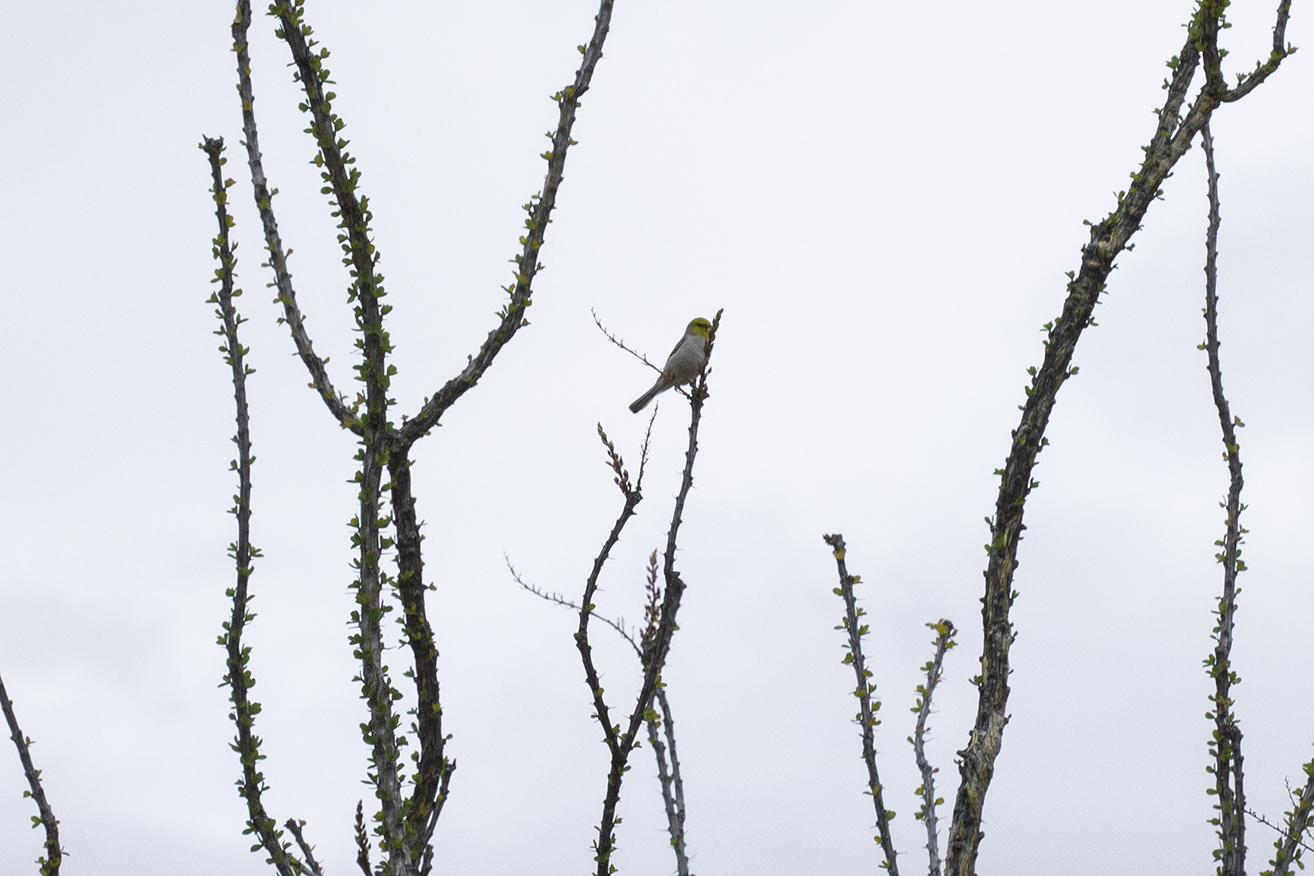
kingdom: Animalia
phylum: Chordata
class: Aves
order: Passeriformes
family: Remizidae
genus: Auriparus
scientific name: Auriparus flaviceps
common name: Verdin
